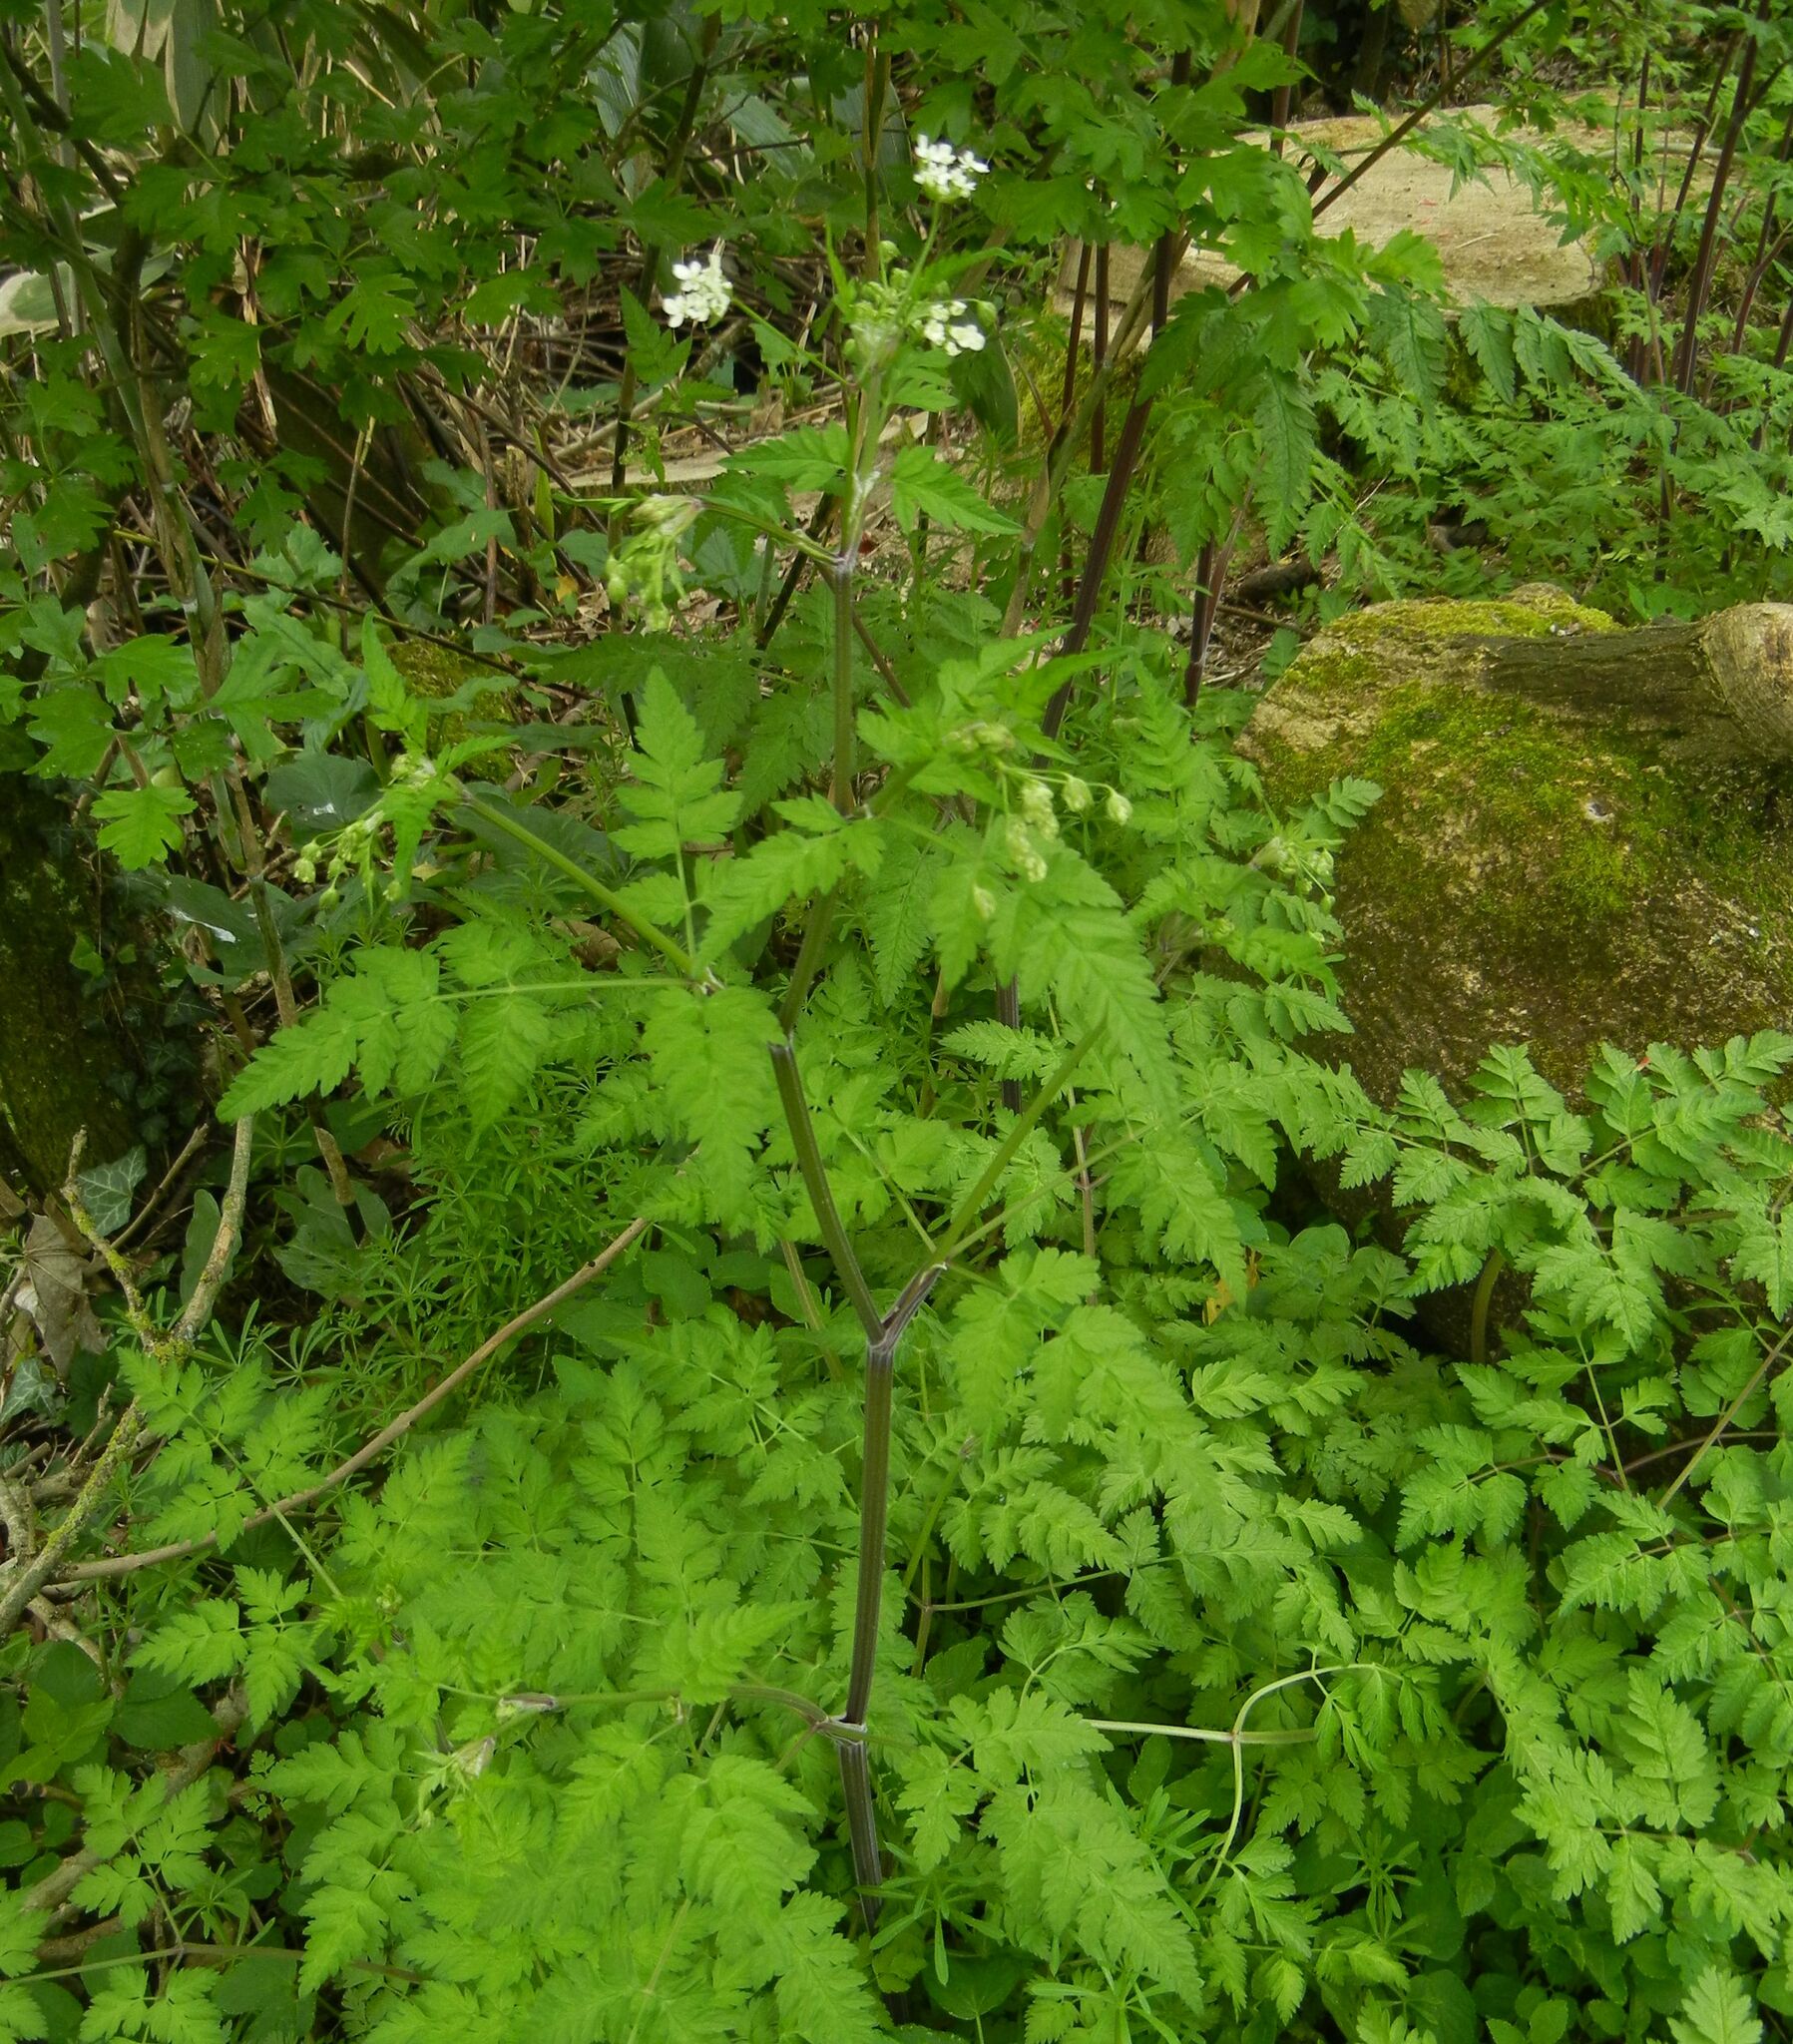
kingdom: Plantae
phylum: Tracheophyta
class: Magnoliopsida
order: Apiales
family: Apiaceae
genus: Anthriscus
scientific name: Anthriscus sylvestris
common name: Cow parsley
